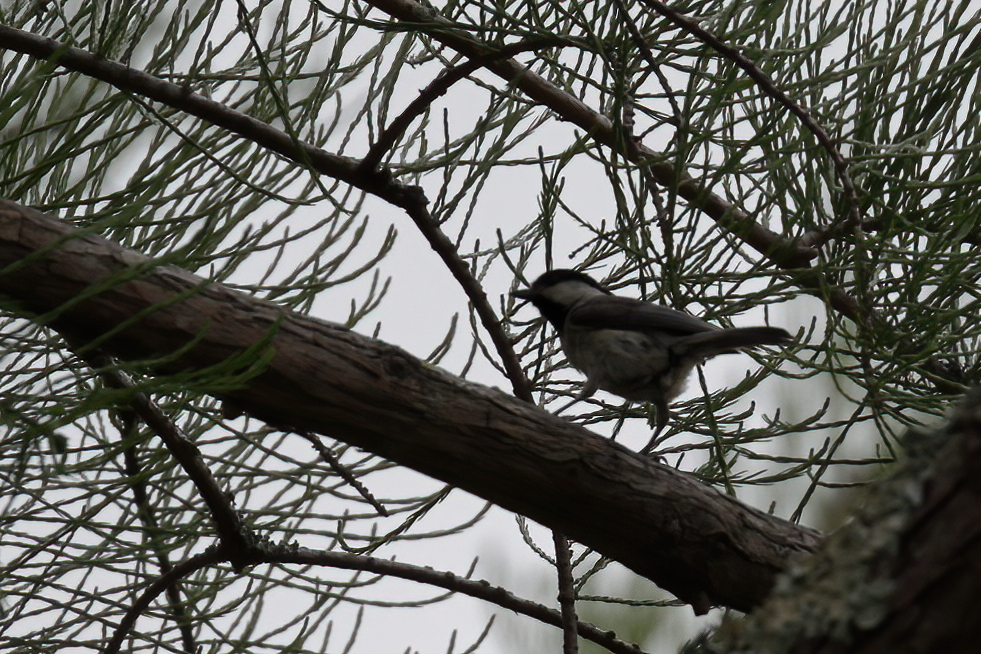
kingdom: Animalia
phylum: Chordata
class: Aves
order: Passeriformes
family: Paridae
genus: Poecile
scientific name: Poecile carolinensis
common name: Carolina chickadee
